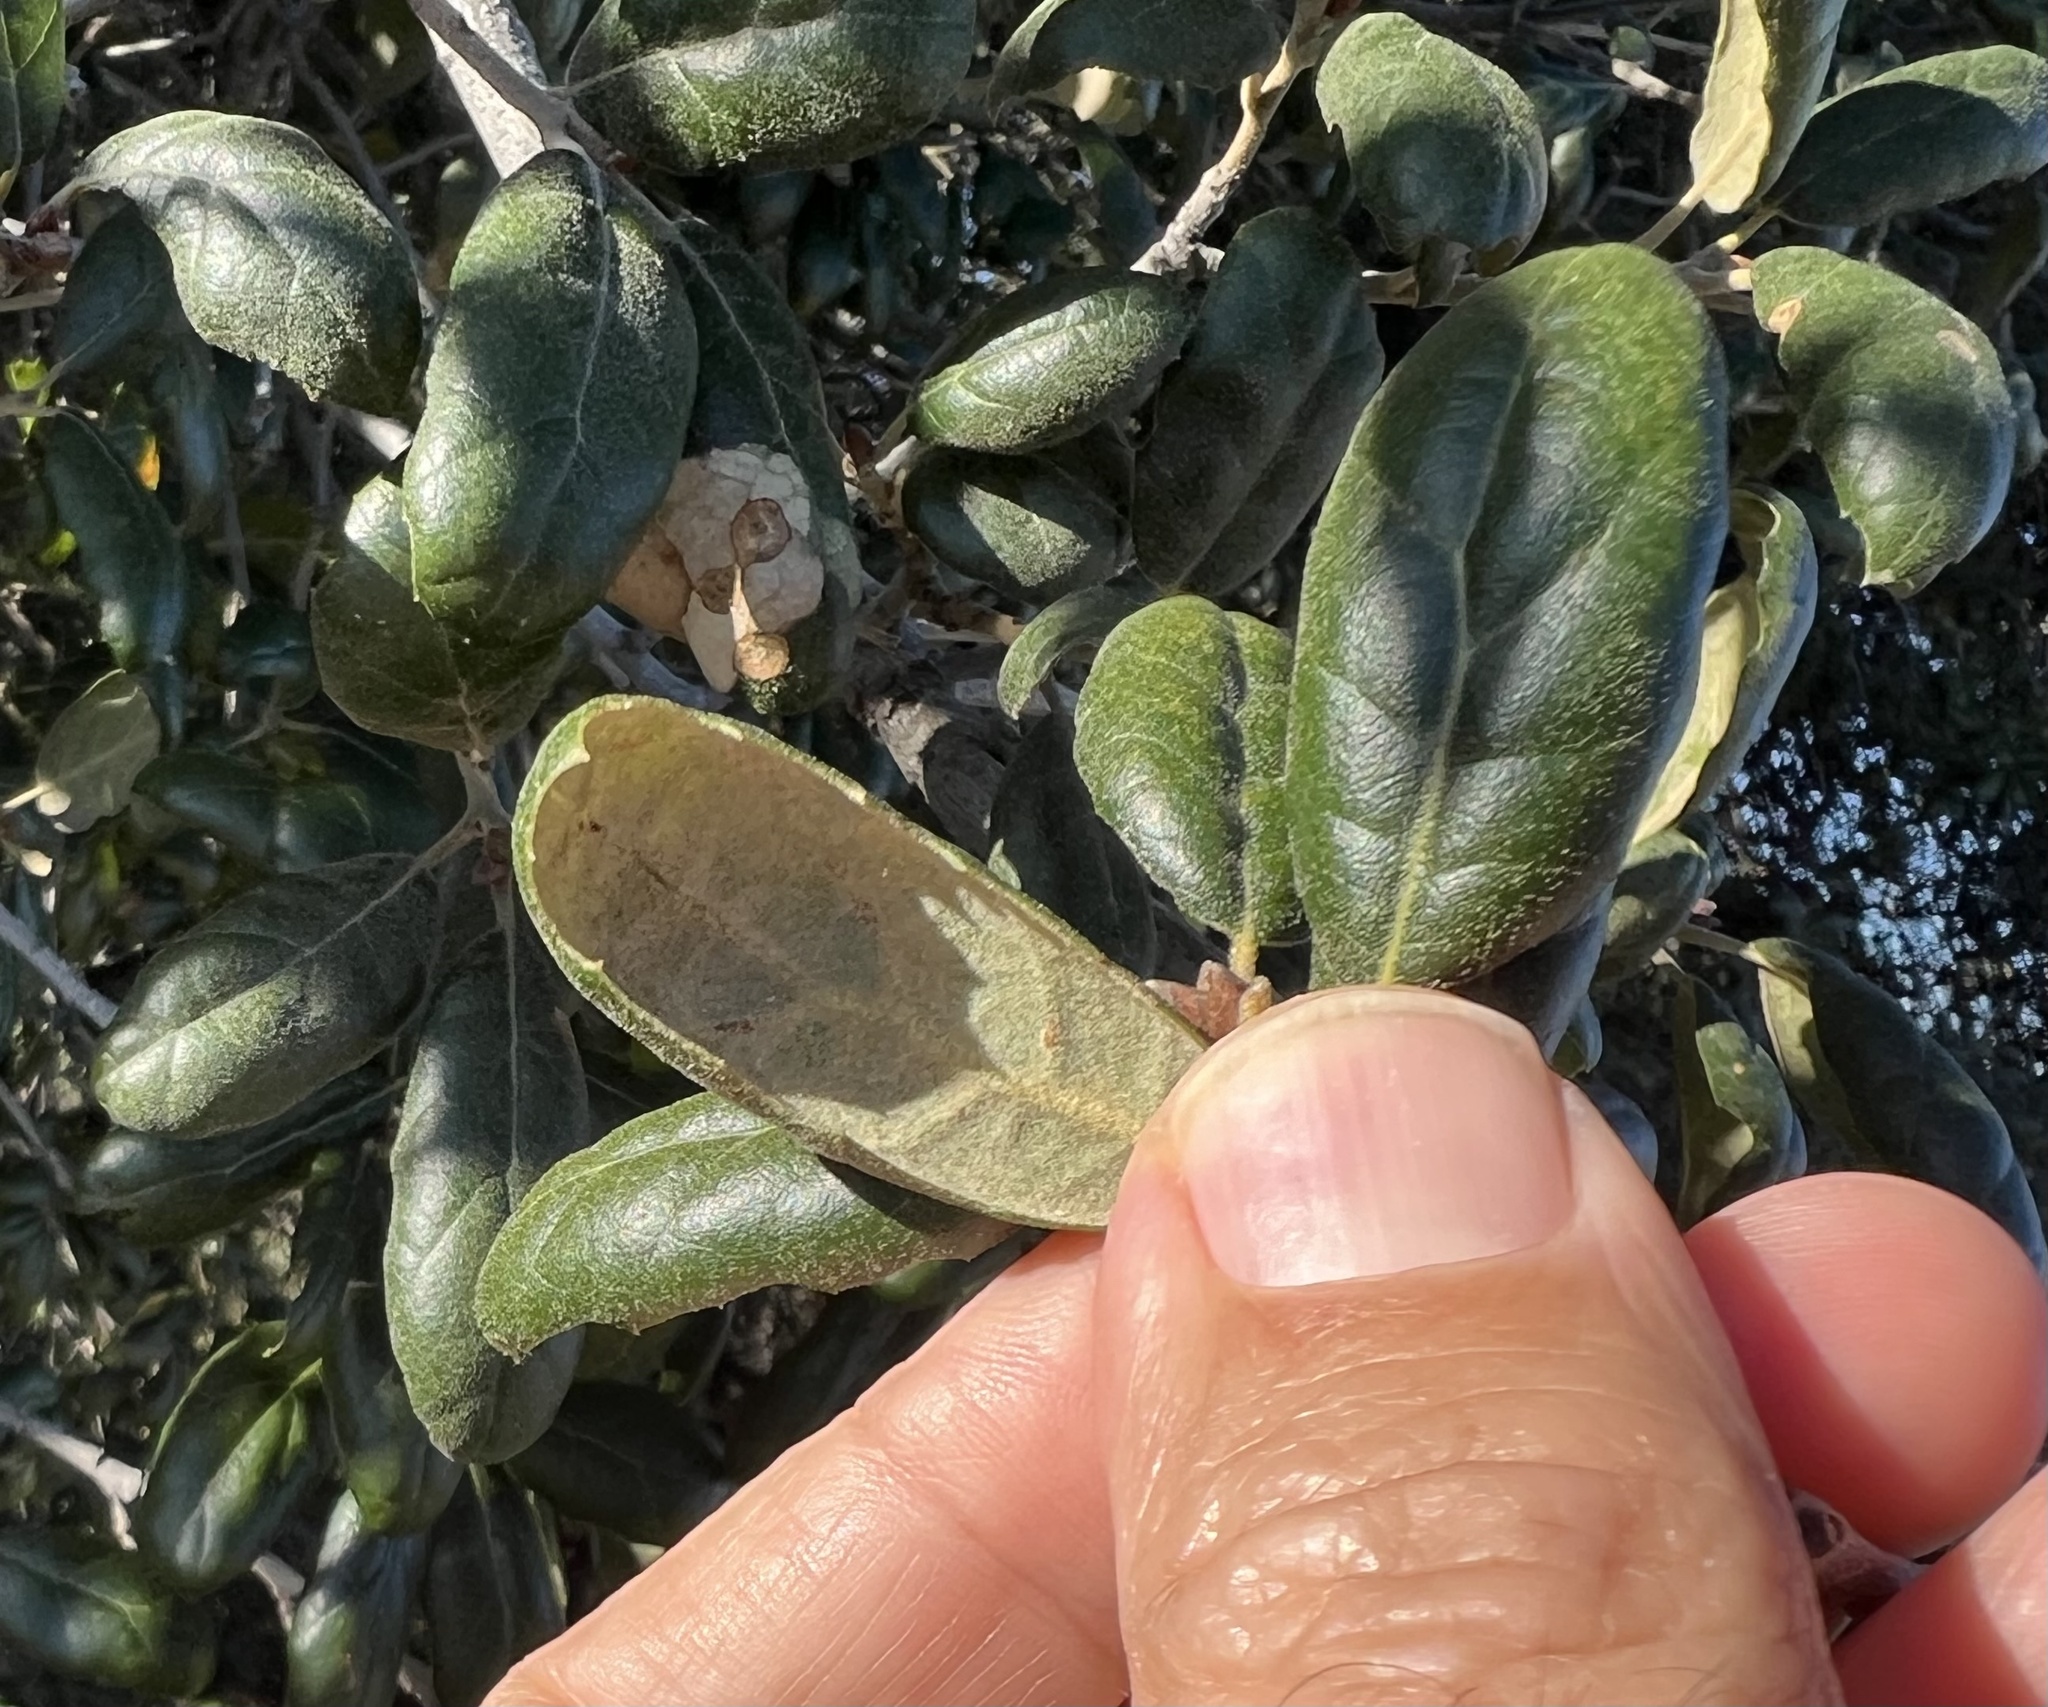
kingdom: Plantae
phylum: Tracheophyta
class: Magnoliopsida
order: Fagales
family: Fagaceae
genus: Quercus
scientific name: Quercus agrifolia
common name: California live oak
